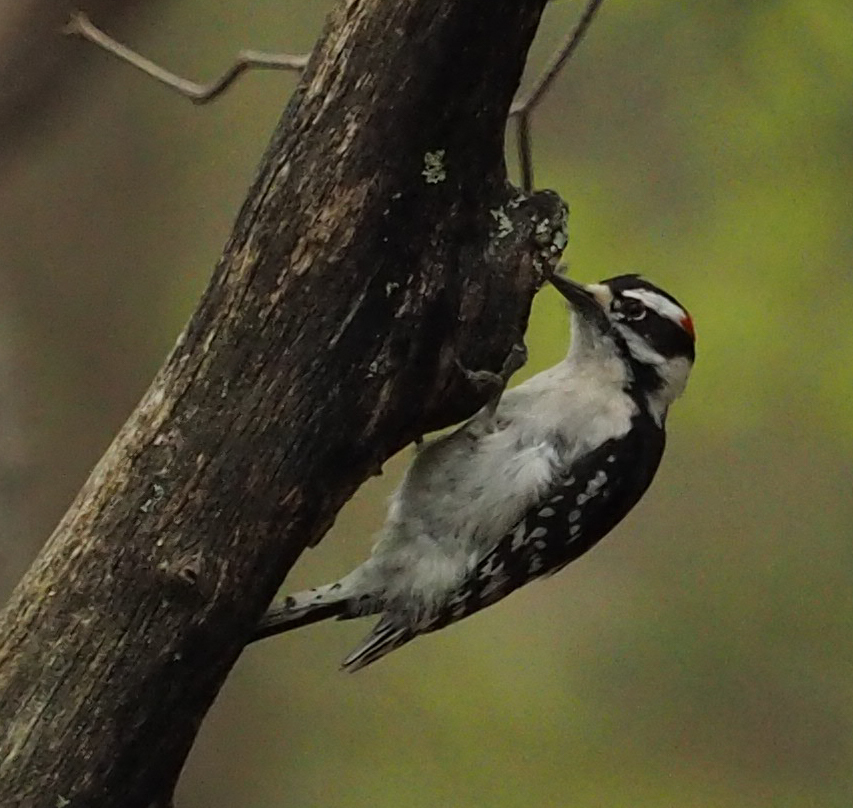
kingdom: Animalia
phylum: Chordata
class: Aves
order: Piciformes
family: Picidae
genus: Dryobates
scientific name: Dryobates pubescens
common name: Downy woodpecker
